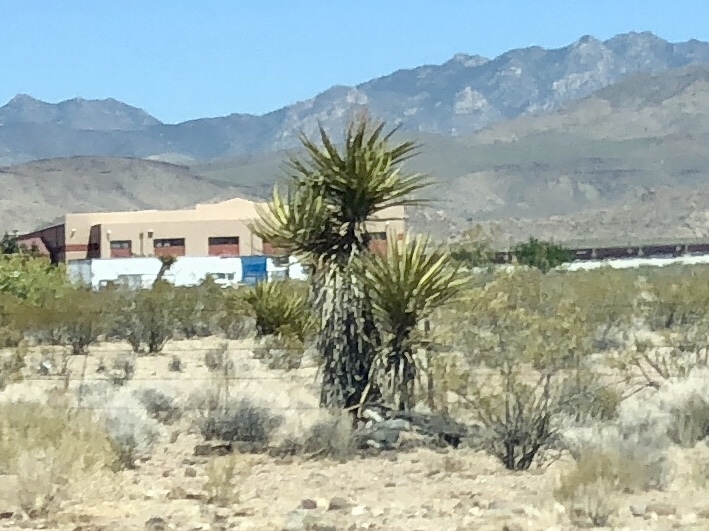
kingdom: Plantae
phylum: Tracheophyta
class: Liliopsida
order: Asparagales
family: Asparagaceae
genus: Yucca
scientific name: Yucca schidigera
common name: Mojave yucca
